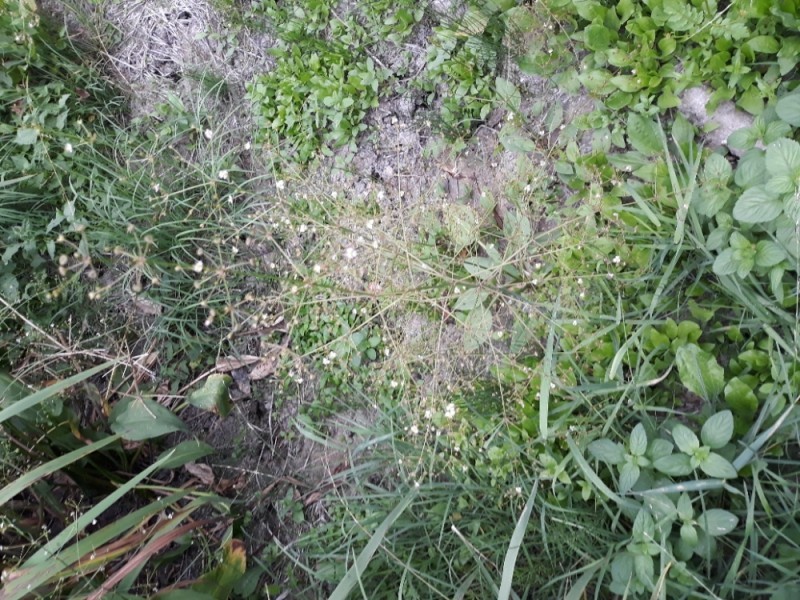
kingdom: Plantae
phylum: Tracheophyta
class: Liliopsida
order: Alismatales
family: Alismataceae
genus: Alisma
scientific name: Alisma plantago-aquatica
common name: Water-plantain
